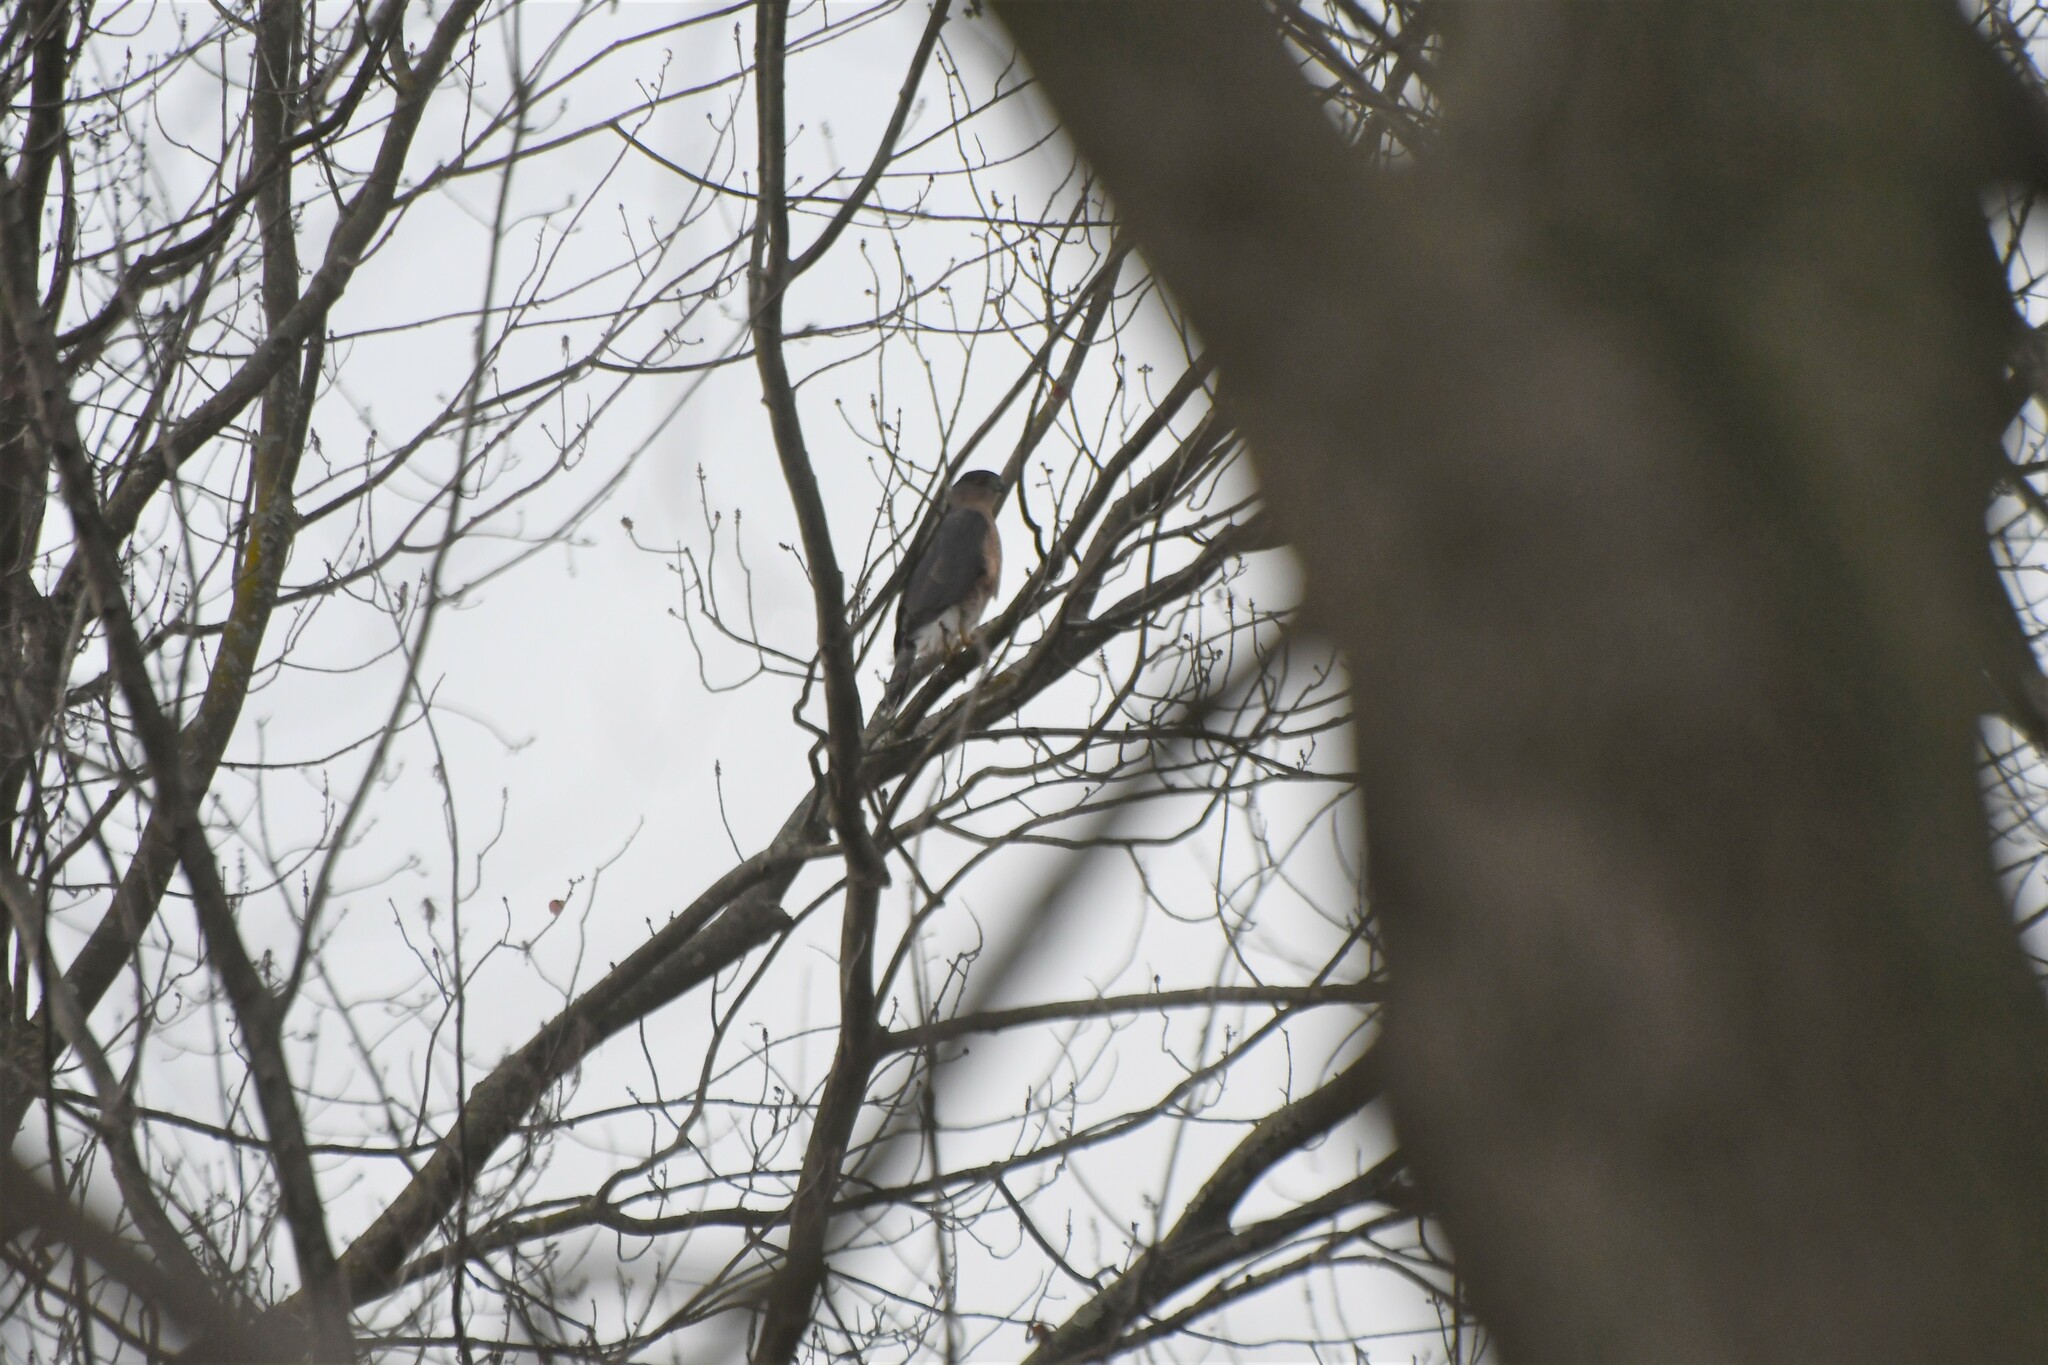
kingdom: Animalia
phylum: Chordata
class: Aves
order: Accipitriformes
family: Accipitridae
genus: Accipiter
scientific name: Accipiter cooperii
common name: Cooper's hawk
